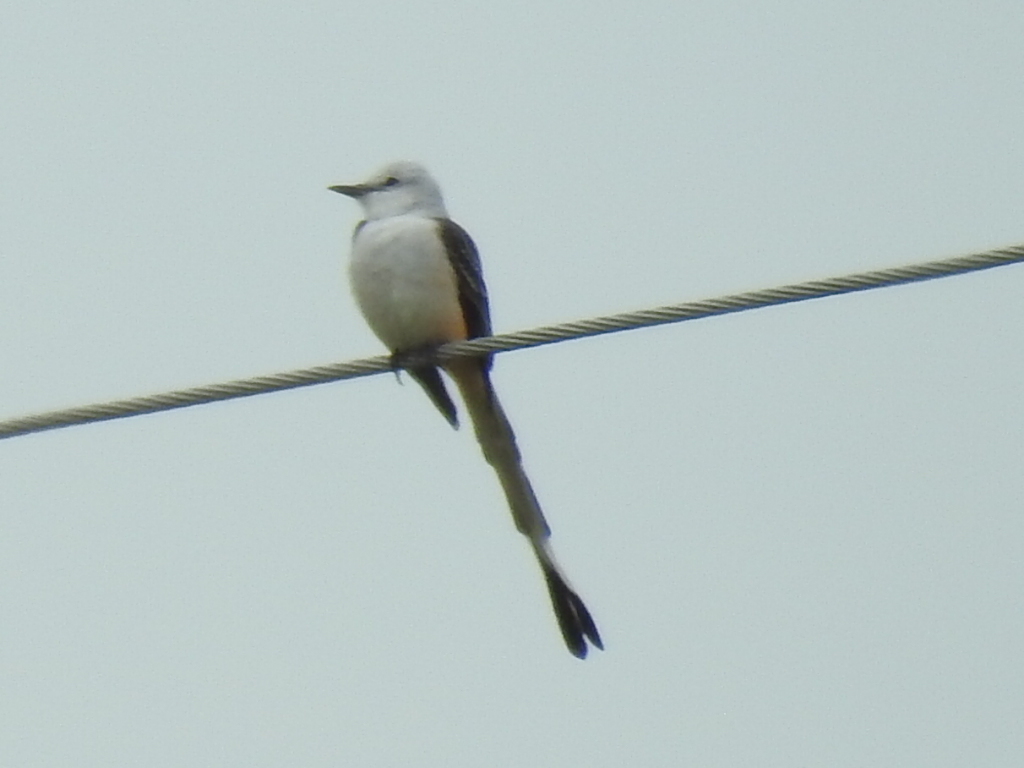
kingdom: Animalia
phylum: Chordata
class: Aves
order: Passeriformes
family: Tyrannidae
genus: Tyrannus
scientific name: Tyrannus forficatus
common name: Scissor-tailed flycatcher
